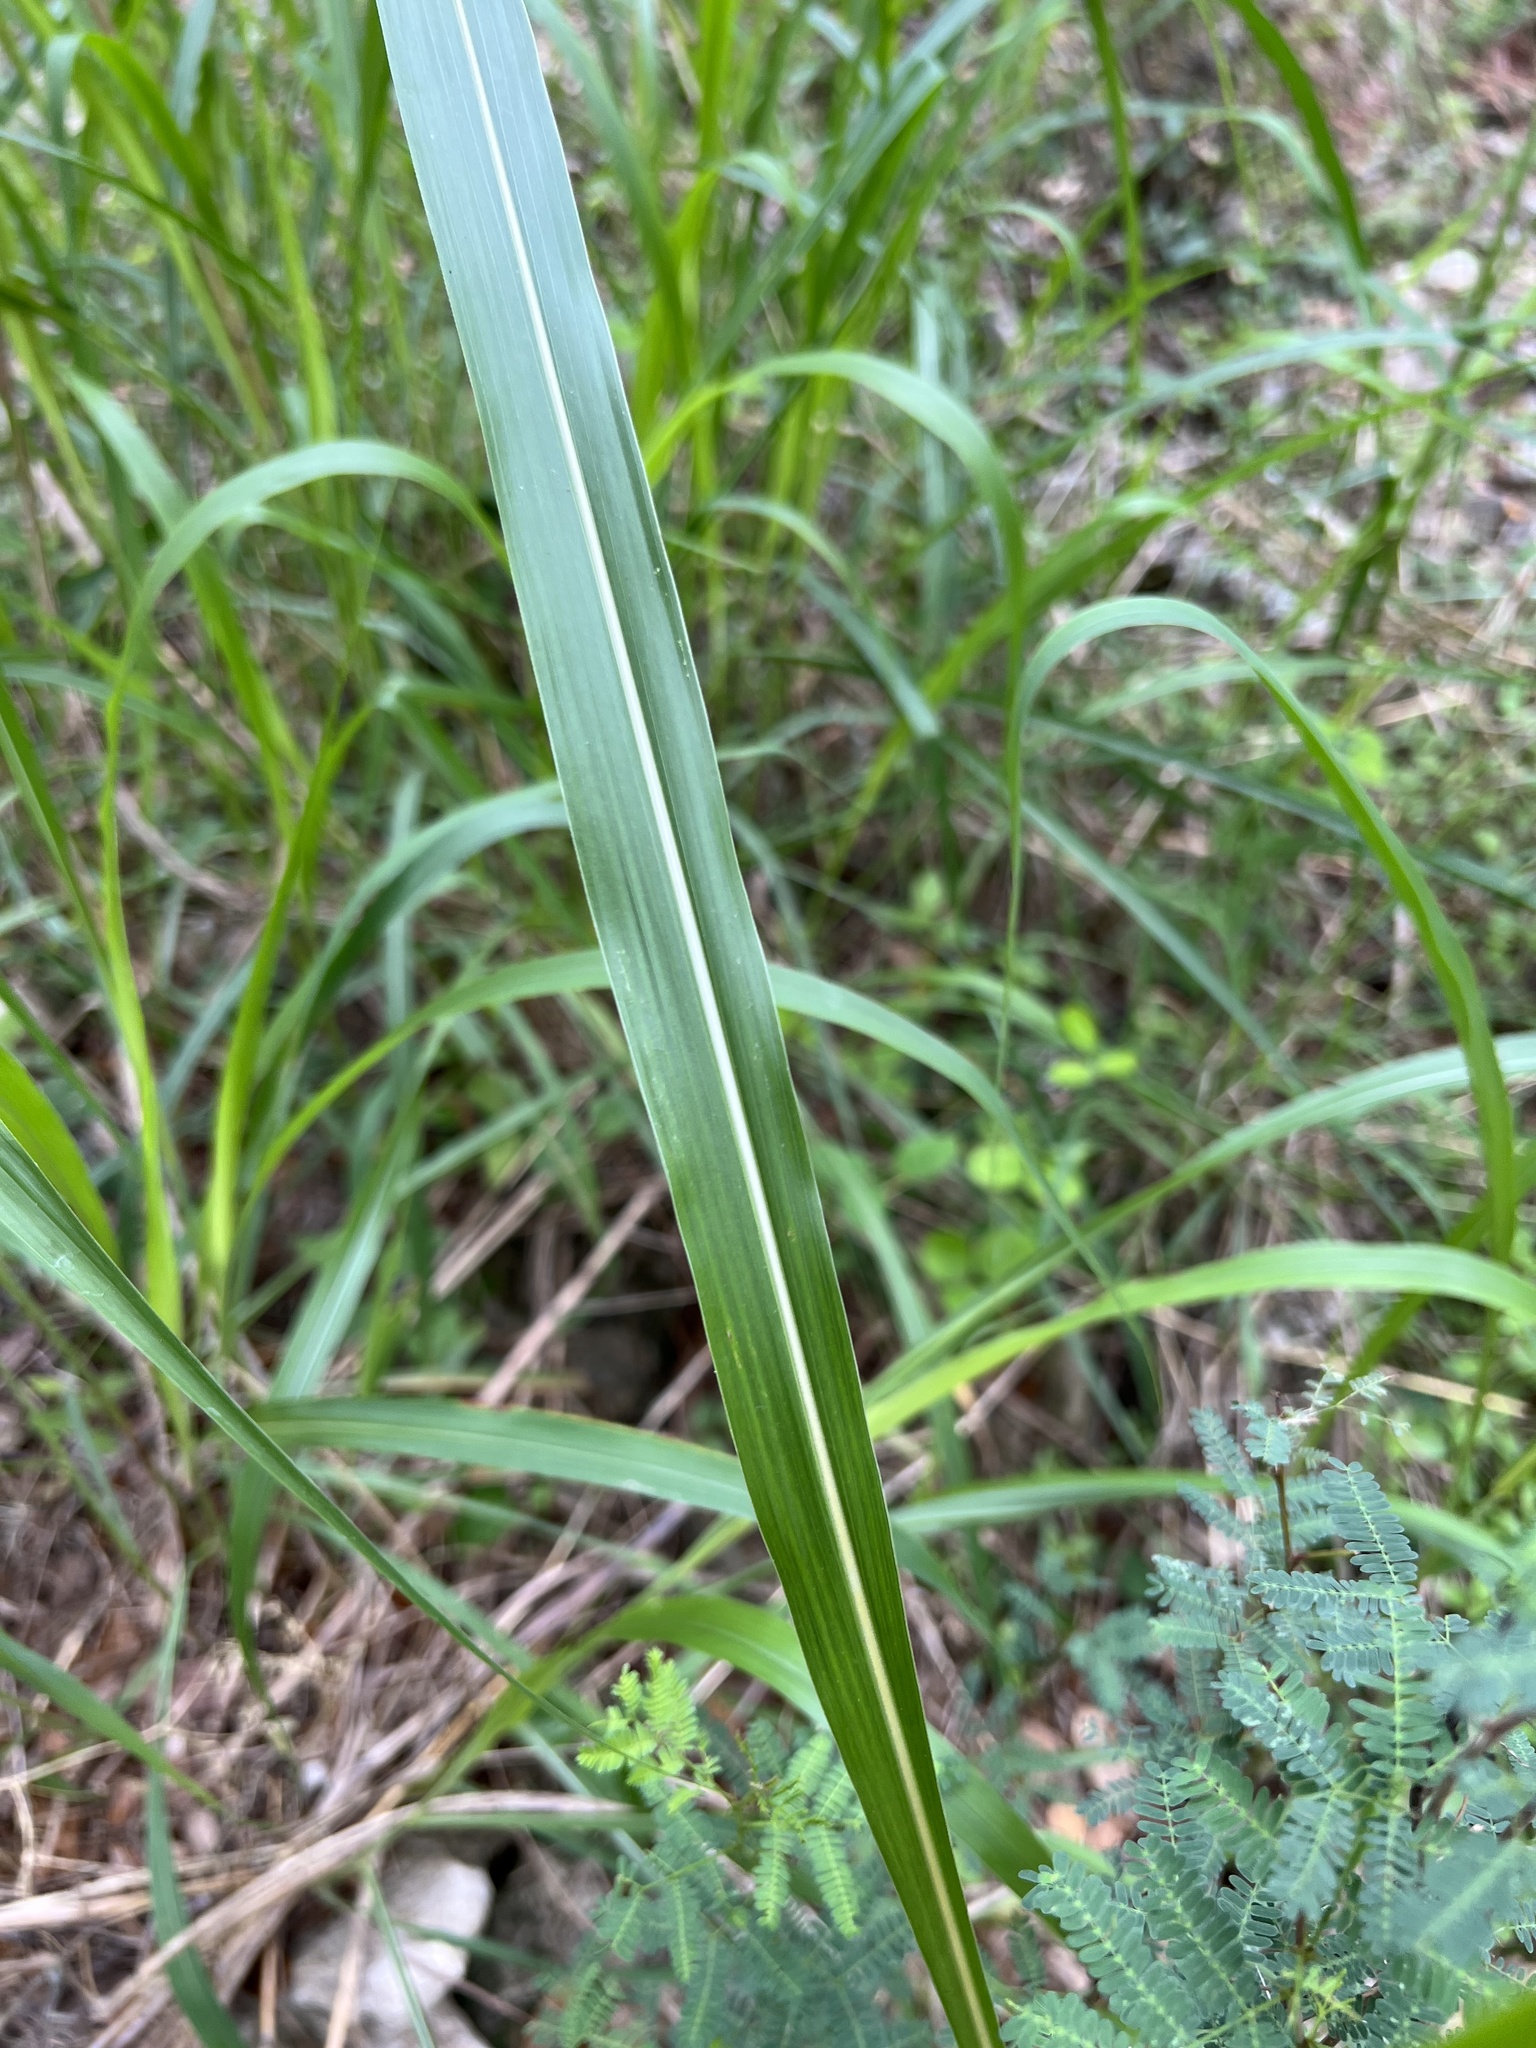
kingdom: Plantae
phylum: Tracheophyta
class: Liliopsida
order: Poales
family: Poaceae
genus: Sorghum
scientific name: Sorghum halepense
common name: Johnson-grass
